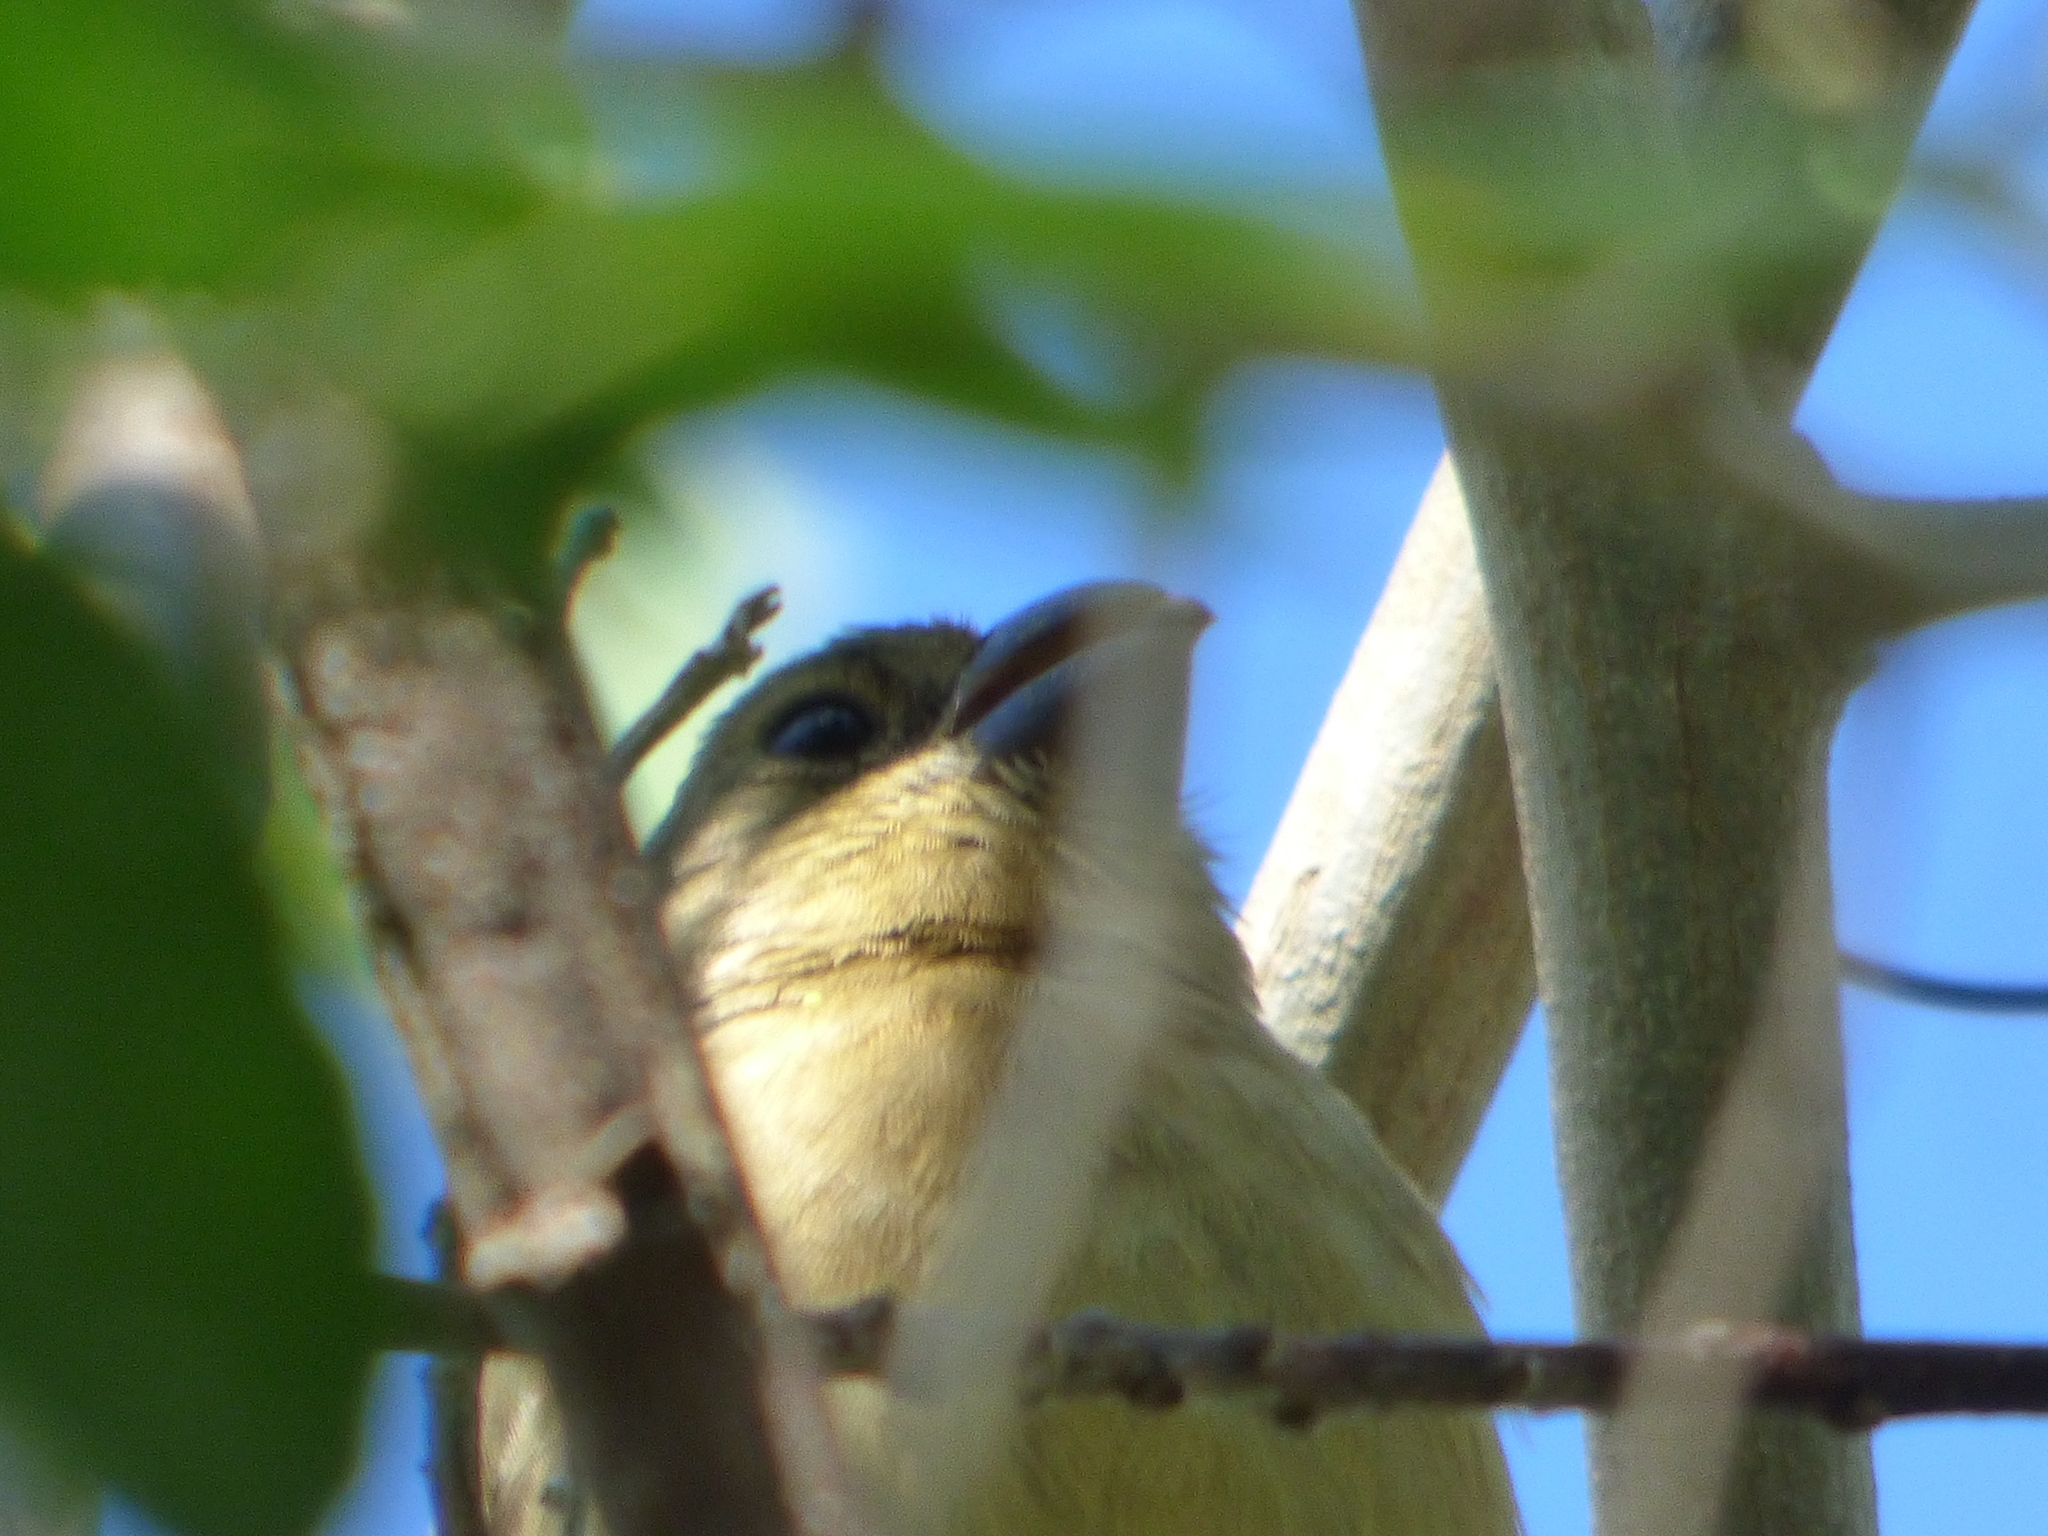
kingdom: Animalia
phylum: Chordata
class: Aves
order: Passeriformes
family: Thraupidae
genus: Sporophila
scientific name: Sporophila leucoptera
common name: White-bellied seedeater
